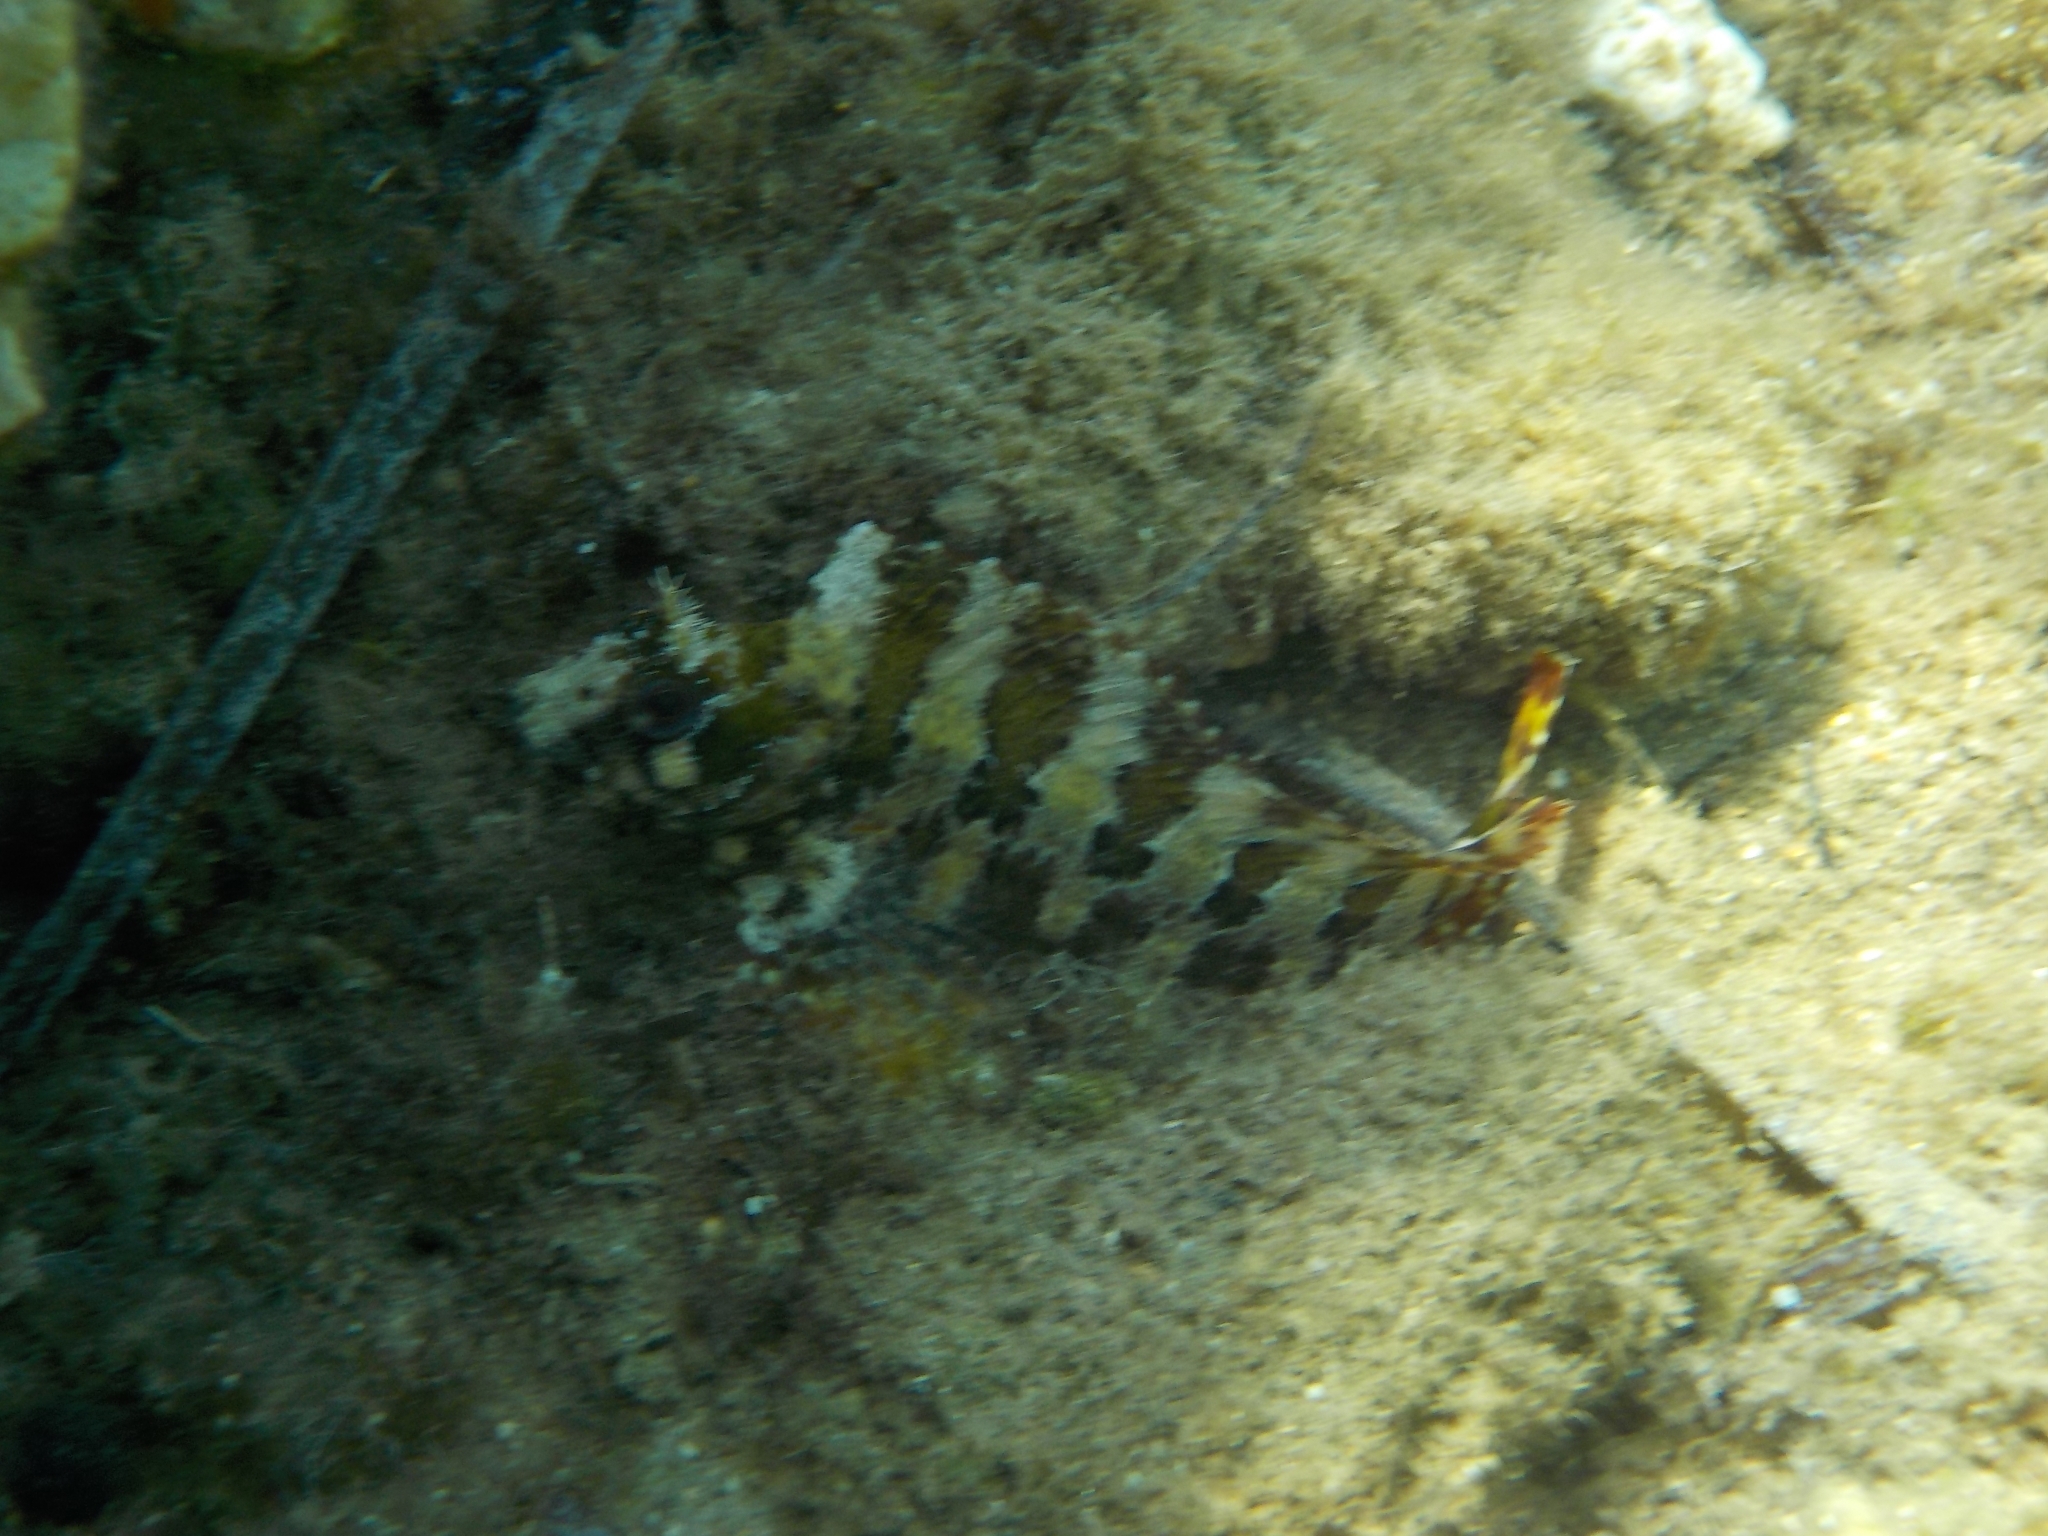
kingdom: Animalia
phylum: Chordata
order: Perciformes
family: Blenniidae
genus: Parablennius
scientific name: Parablennius gattorugine
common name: Tompot blenny
